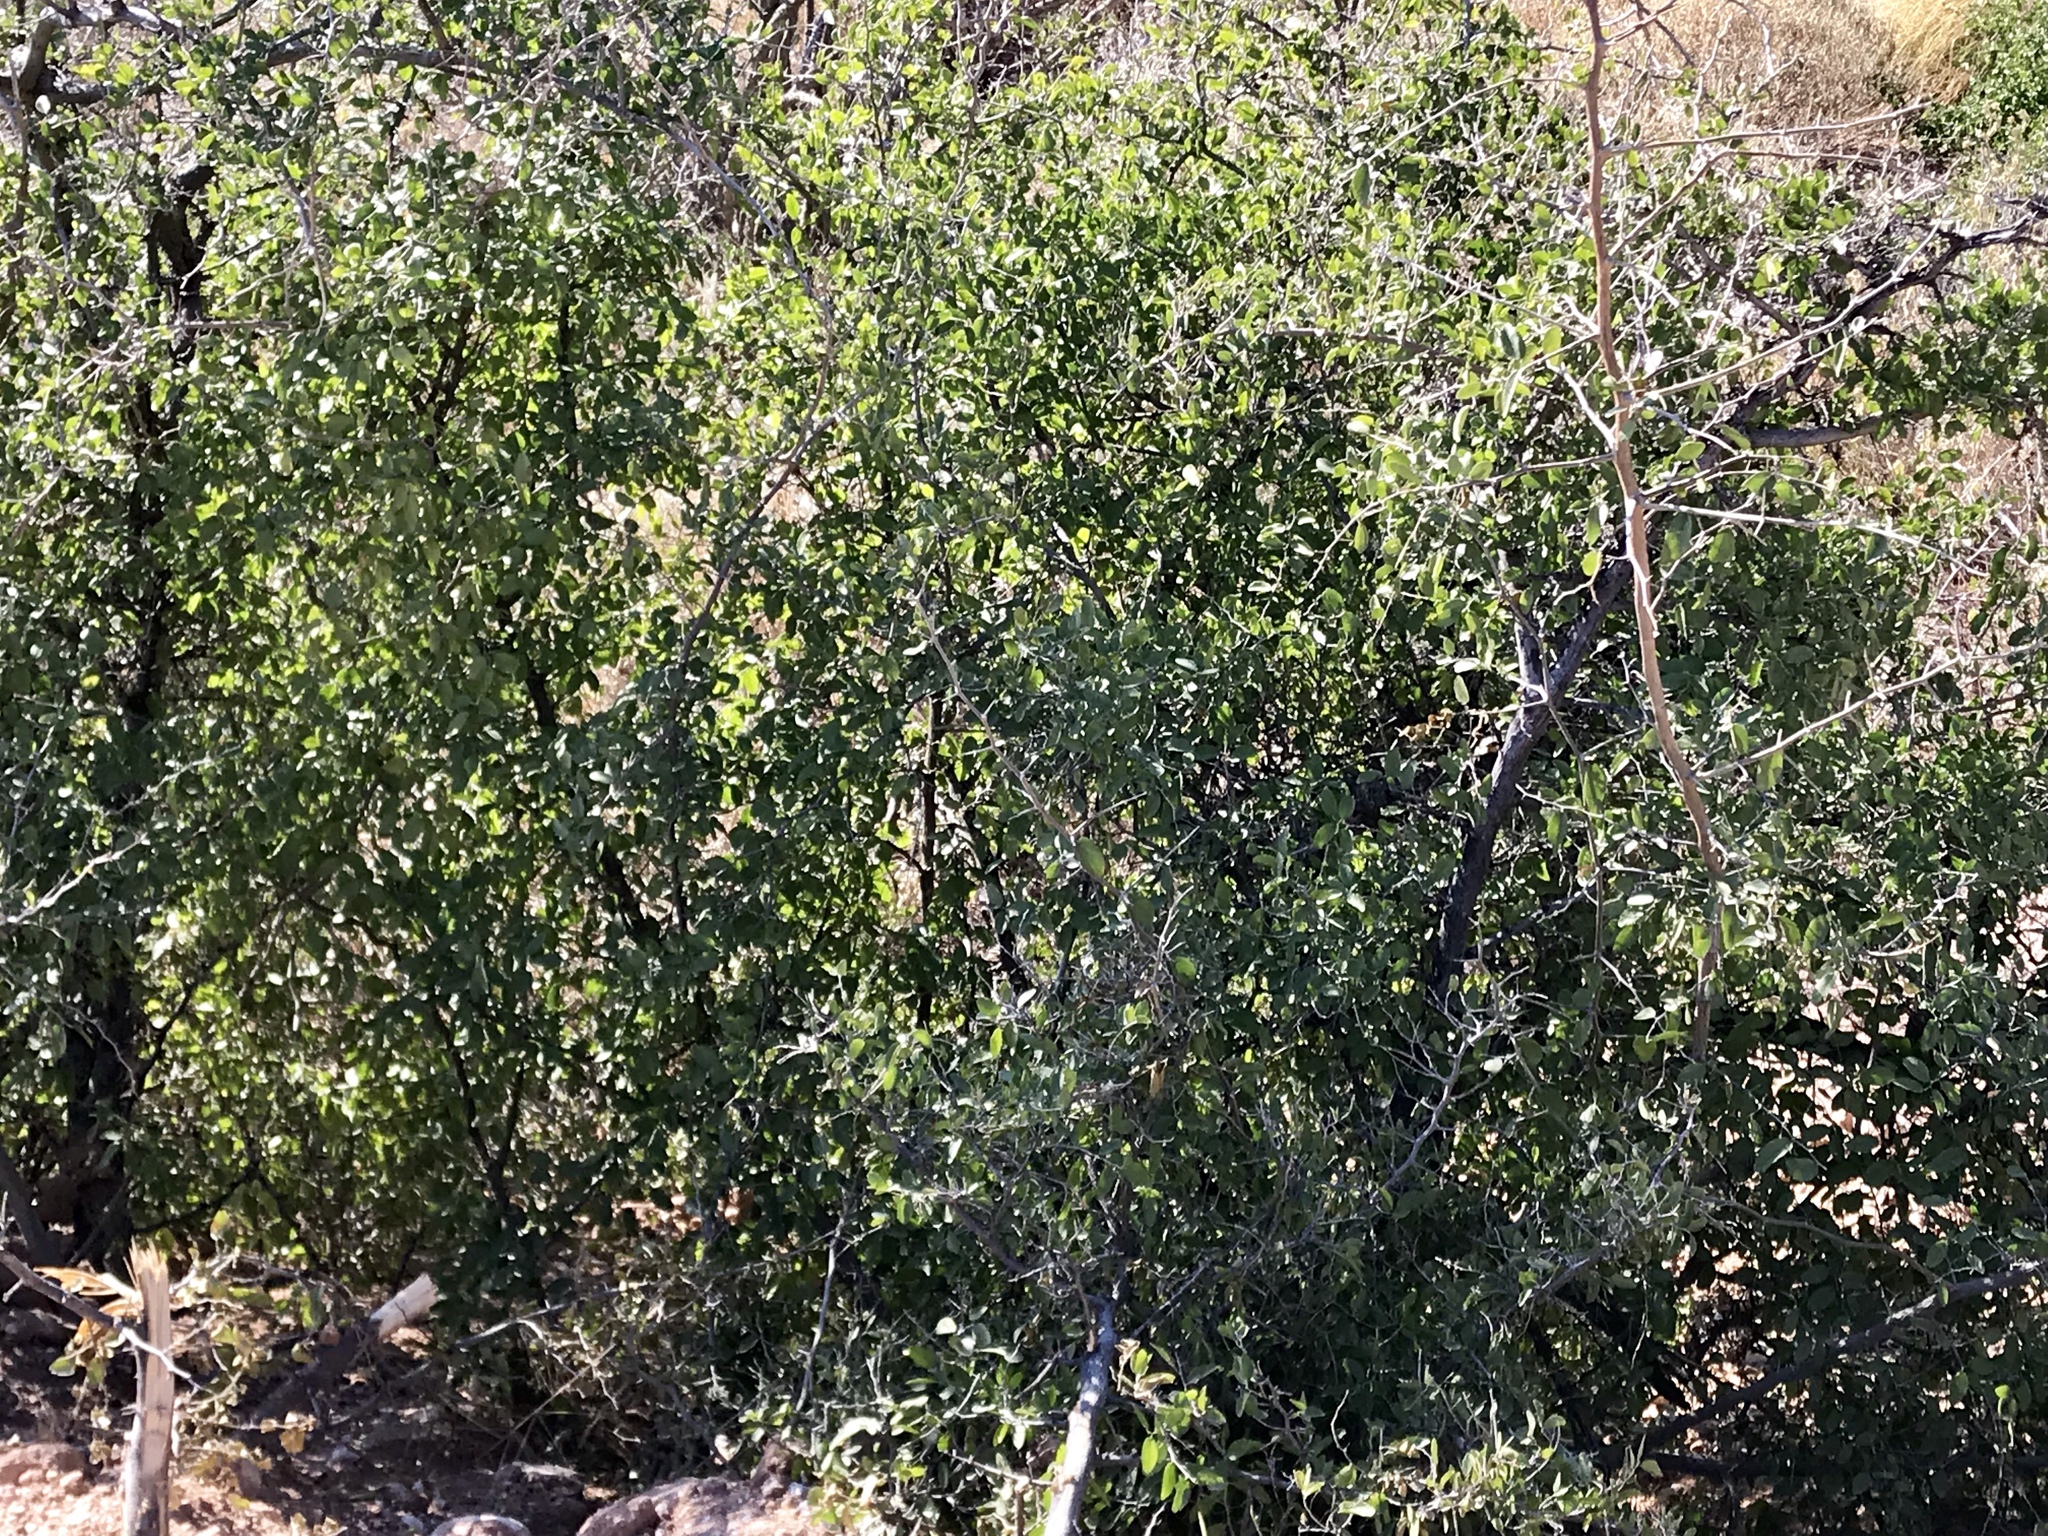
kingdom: Plantae
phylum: Tracheophyta
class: Magnoliopsida
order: Rosales
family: Cannabaceae
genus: Celtis
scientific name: Celtis pallida
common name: Desert hackberry
